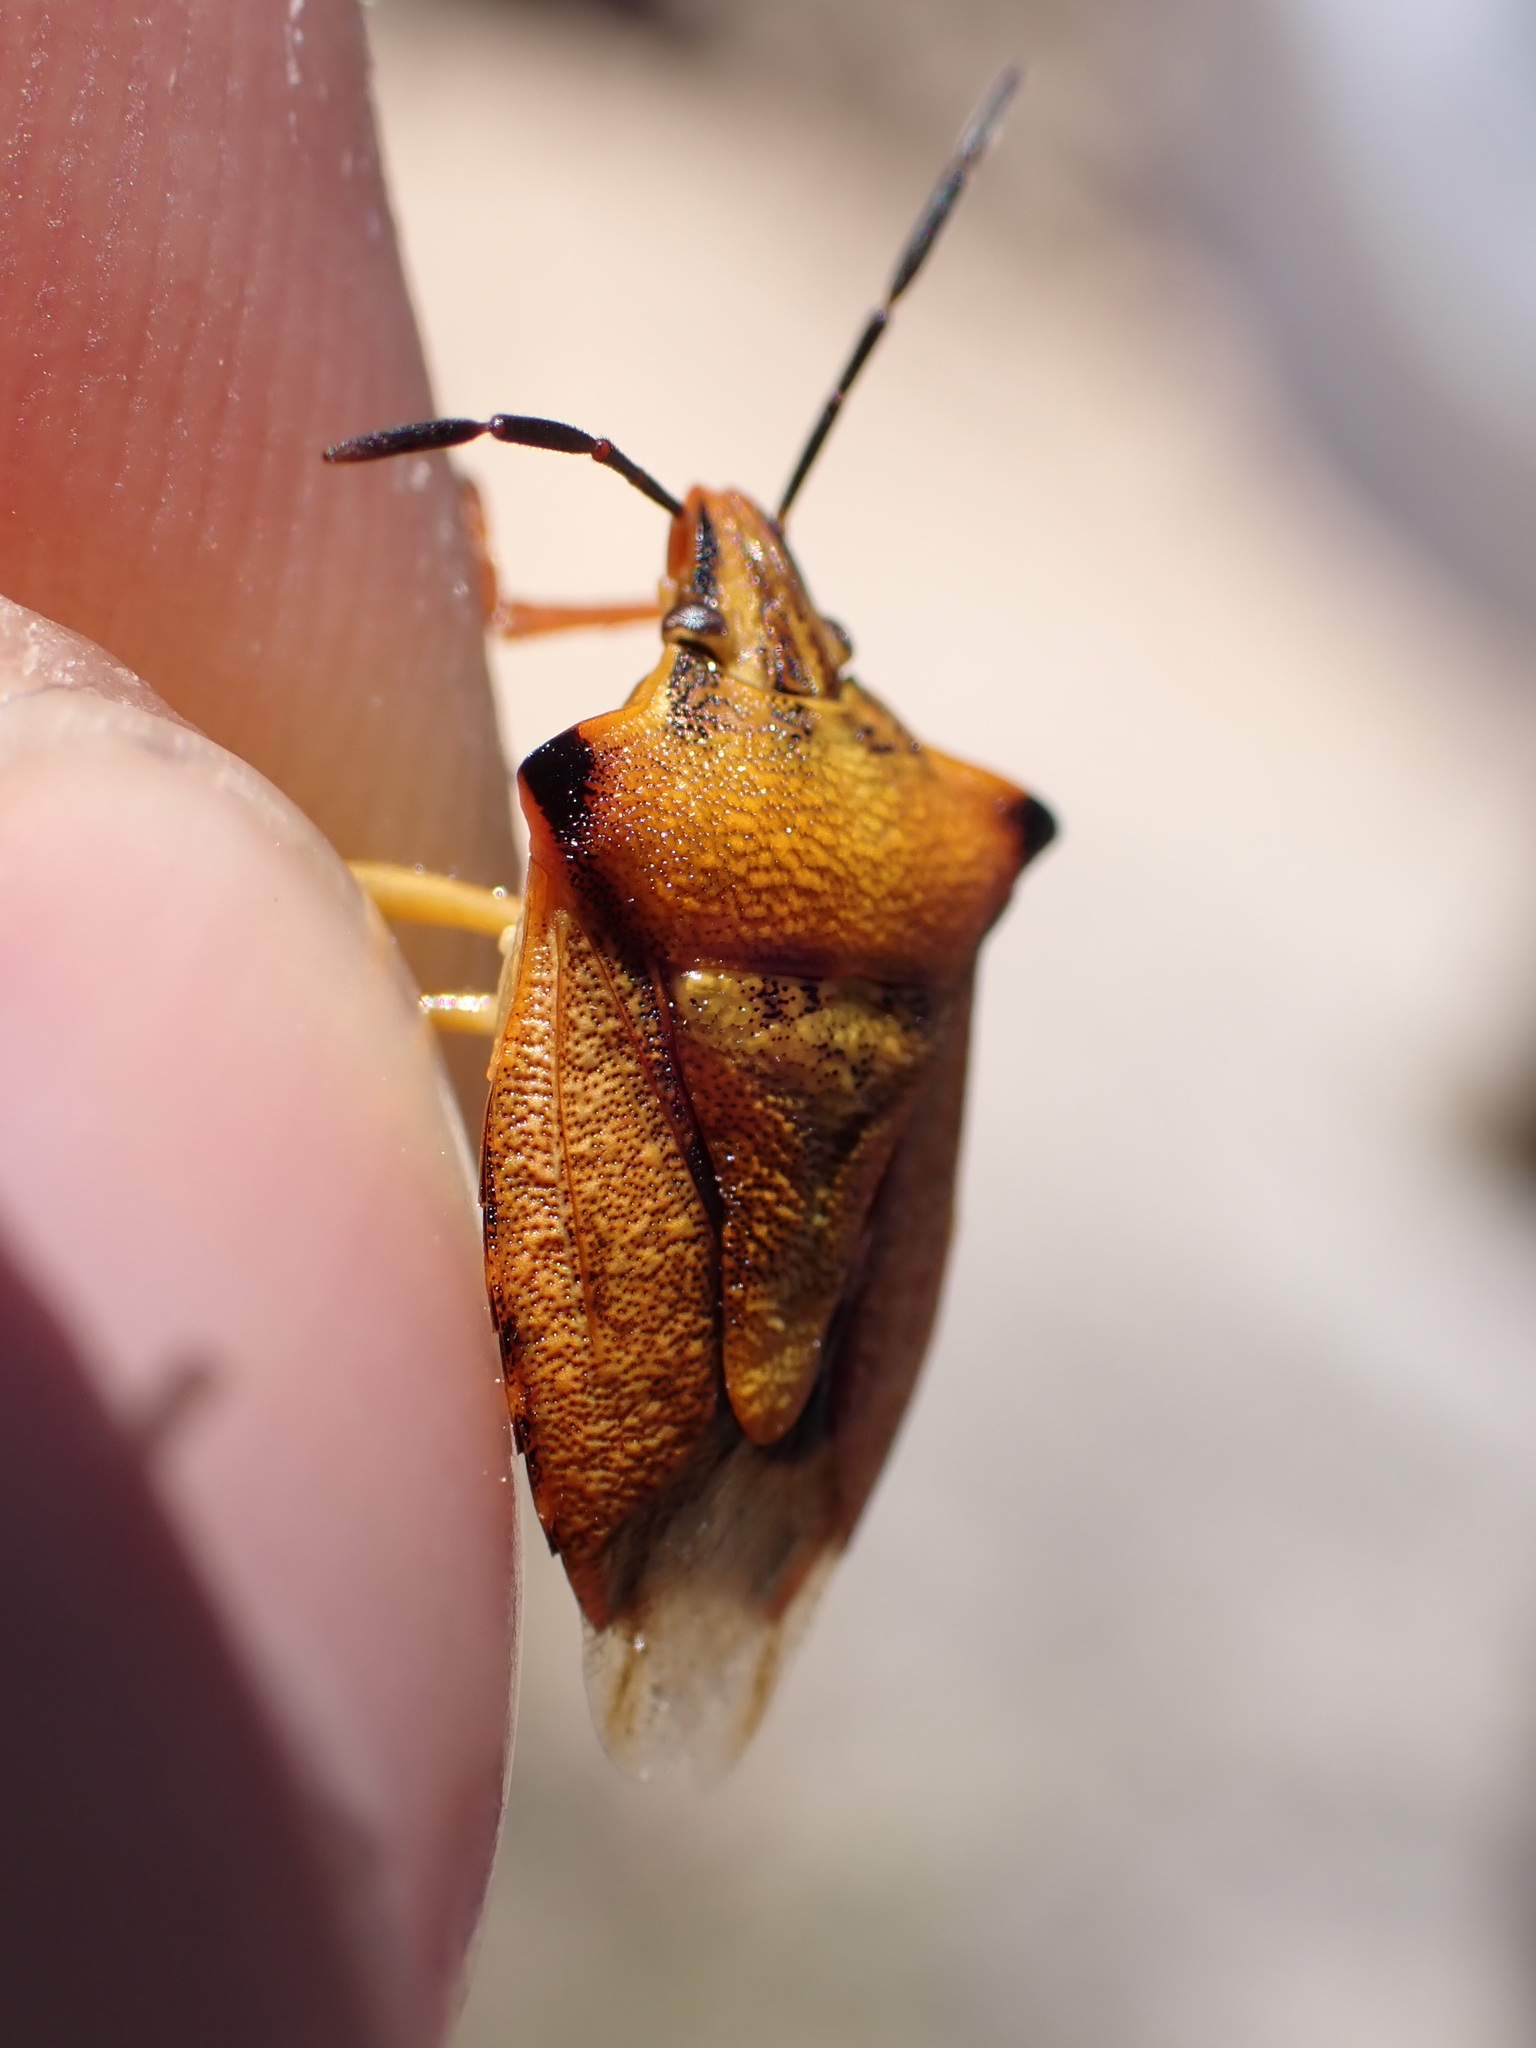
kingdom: Animalia
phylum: Arthropoda
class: Insecta
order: Hemiptera
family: Pentatomidae
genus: Carpocoris
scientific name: Carpocoris mediterraneus
